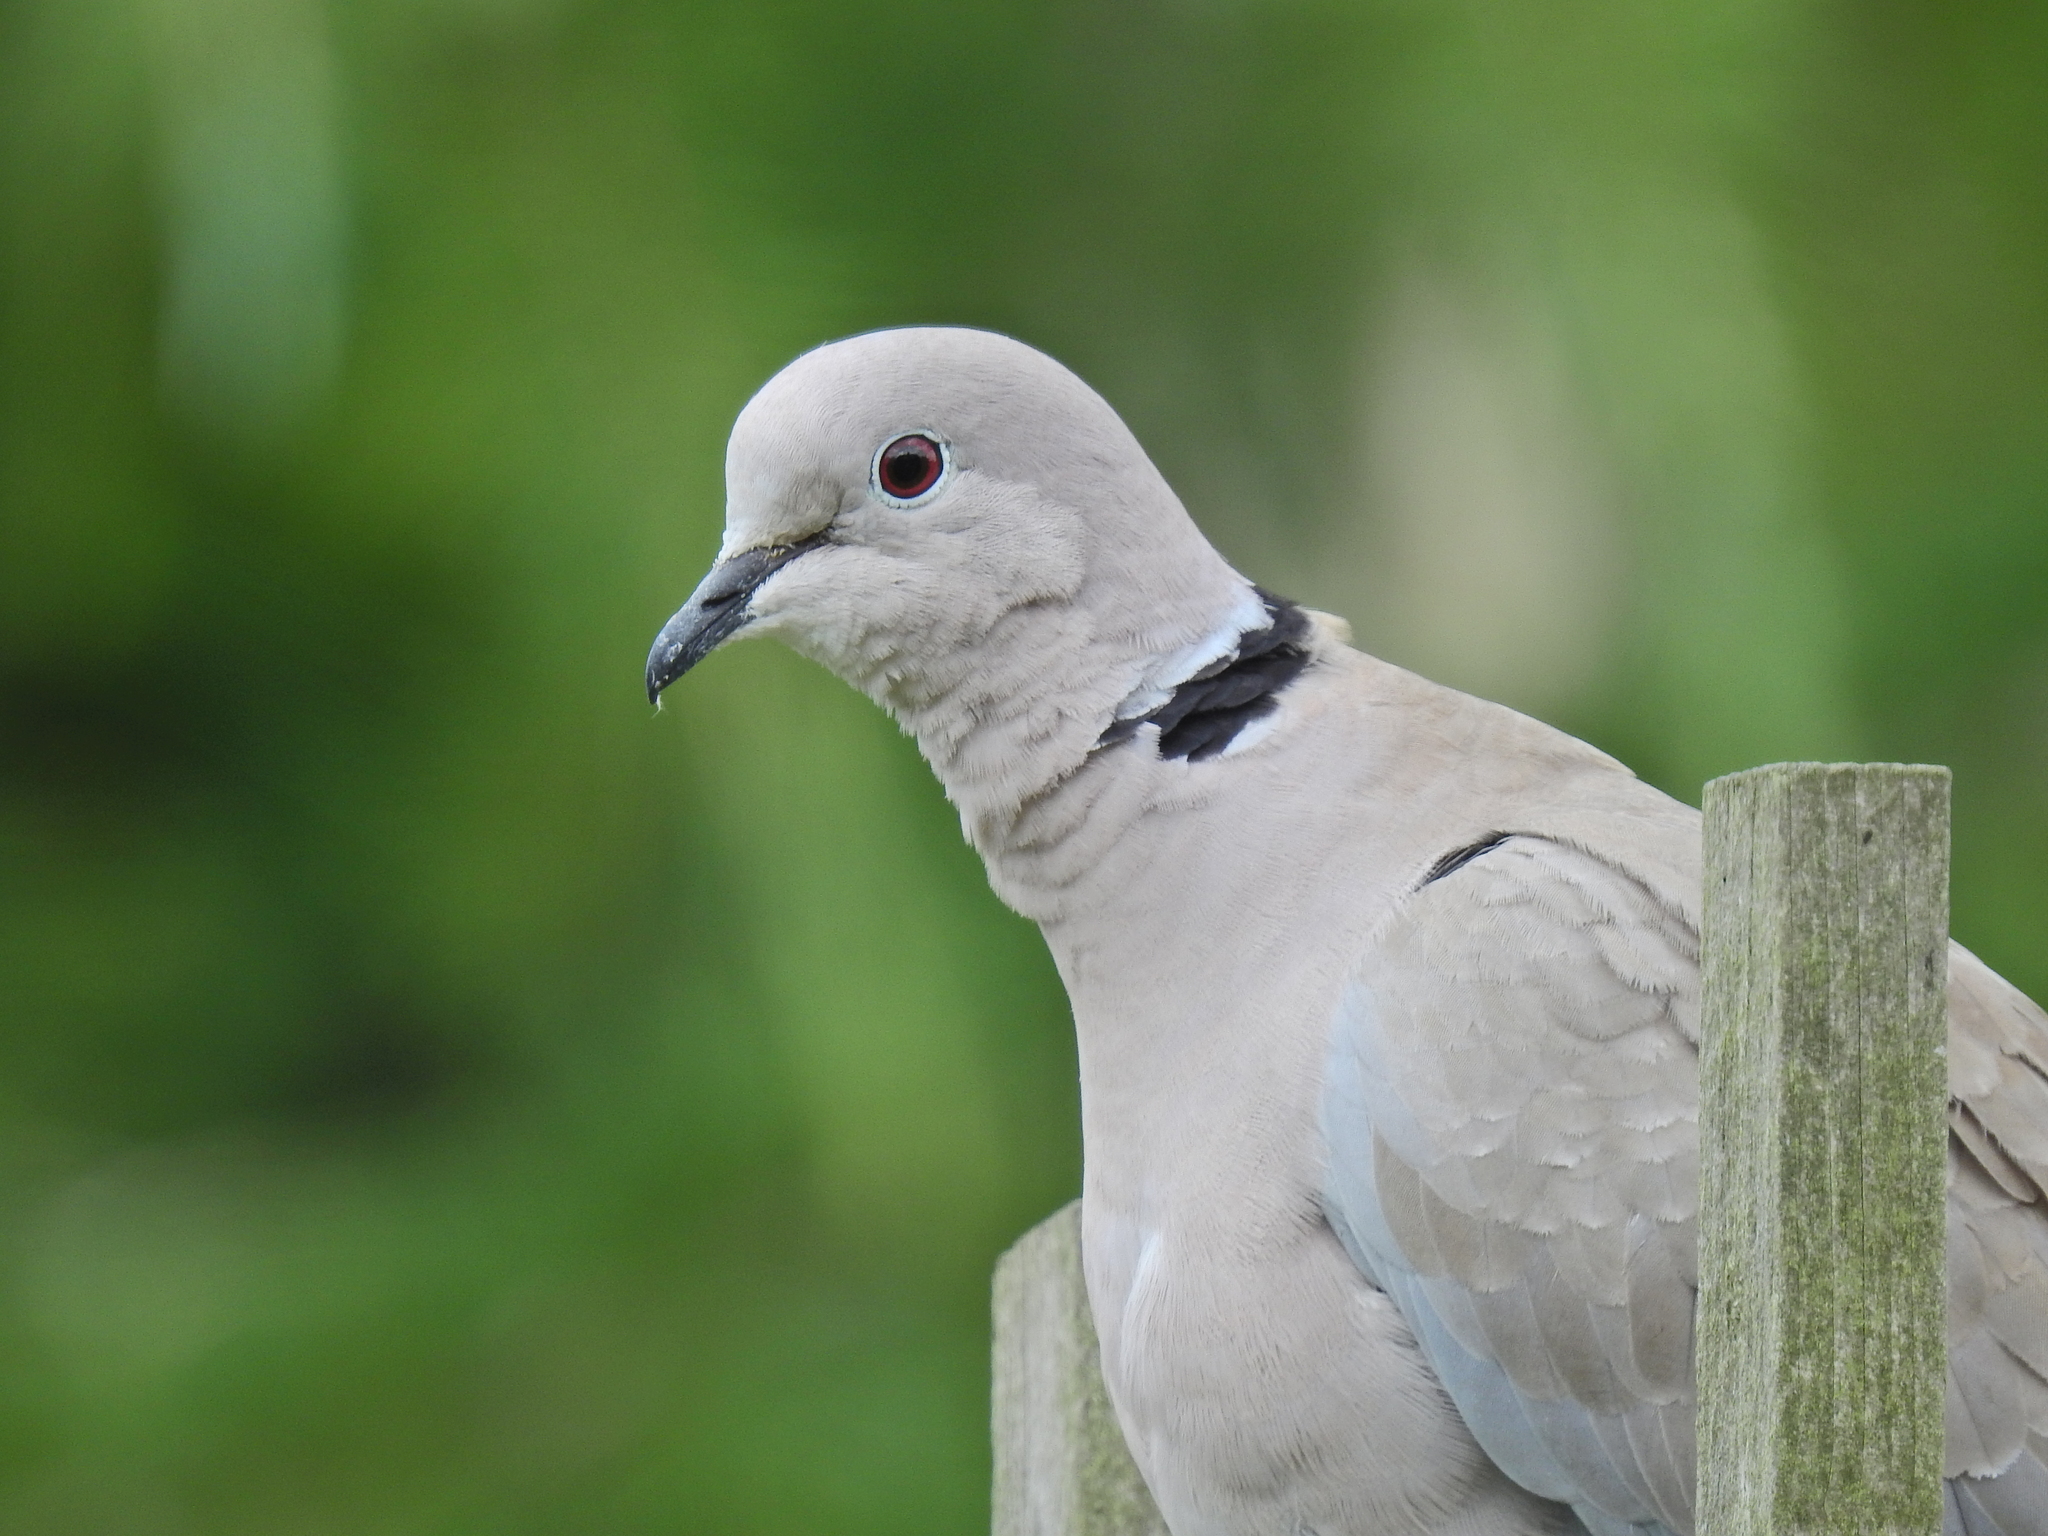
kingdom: Animalia
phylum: Chordata
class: Aves
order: Columbiformes
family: Columbidae
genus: Streptopelia
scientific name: Streptopelia decaocto
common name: Eurasian collared dove
